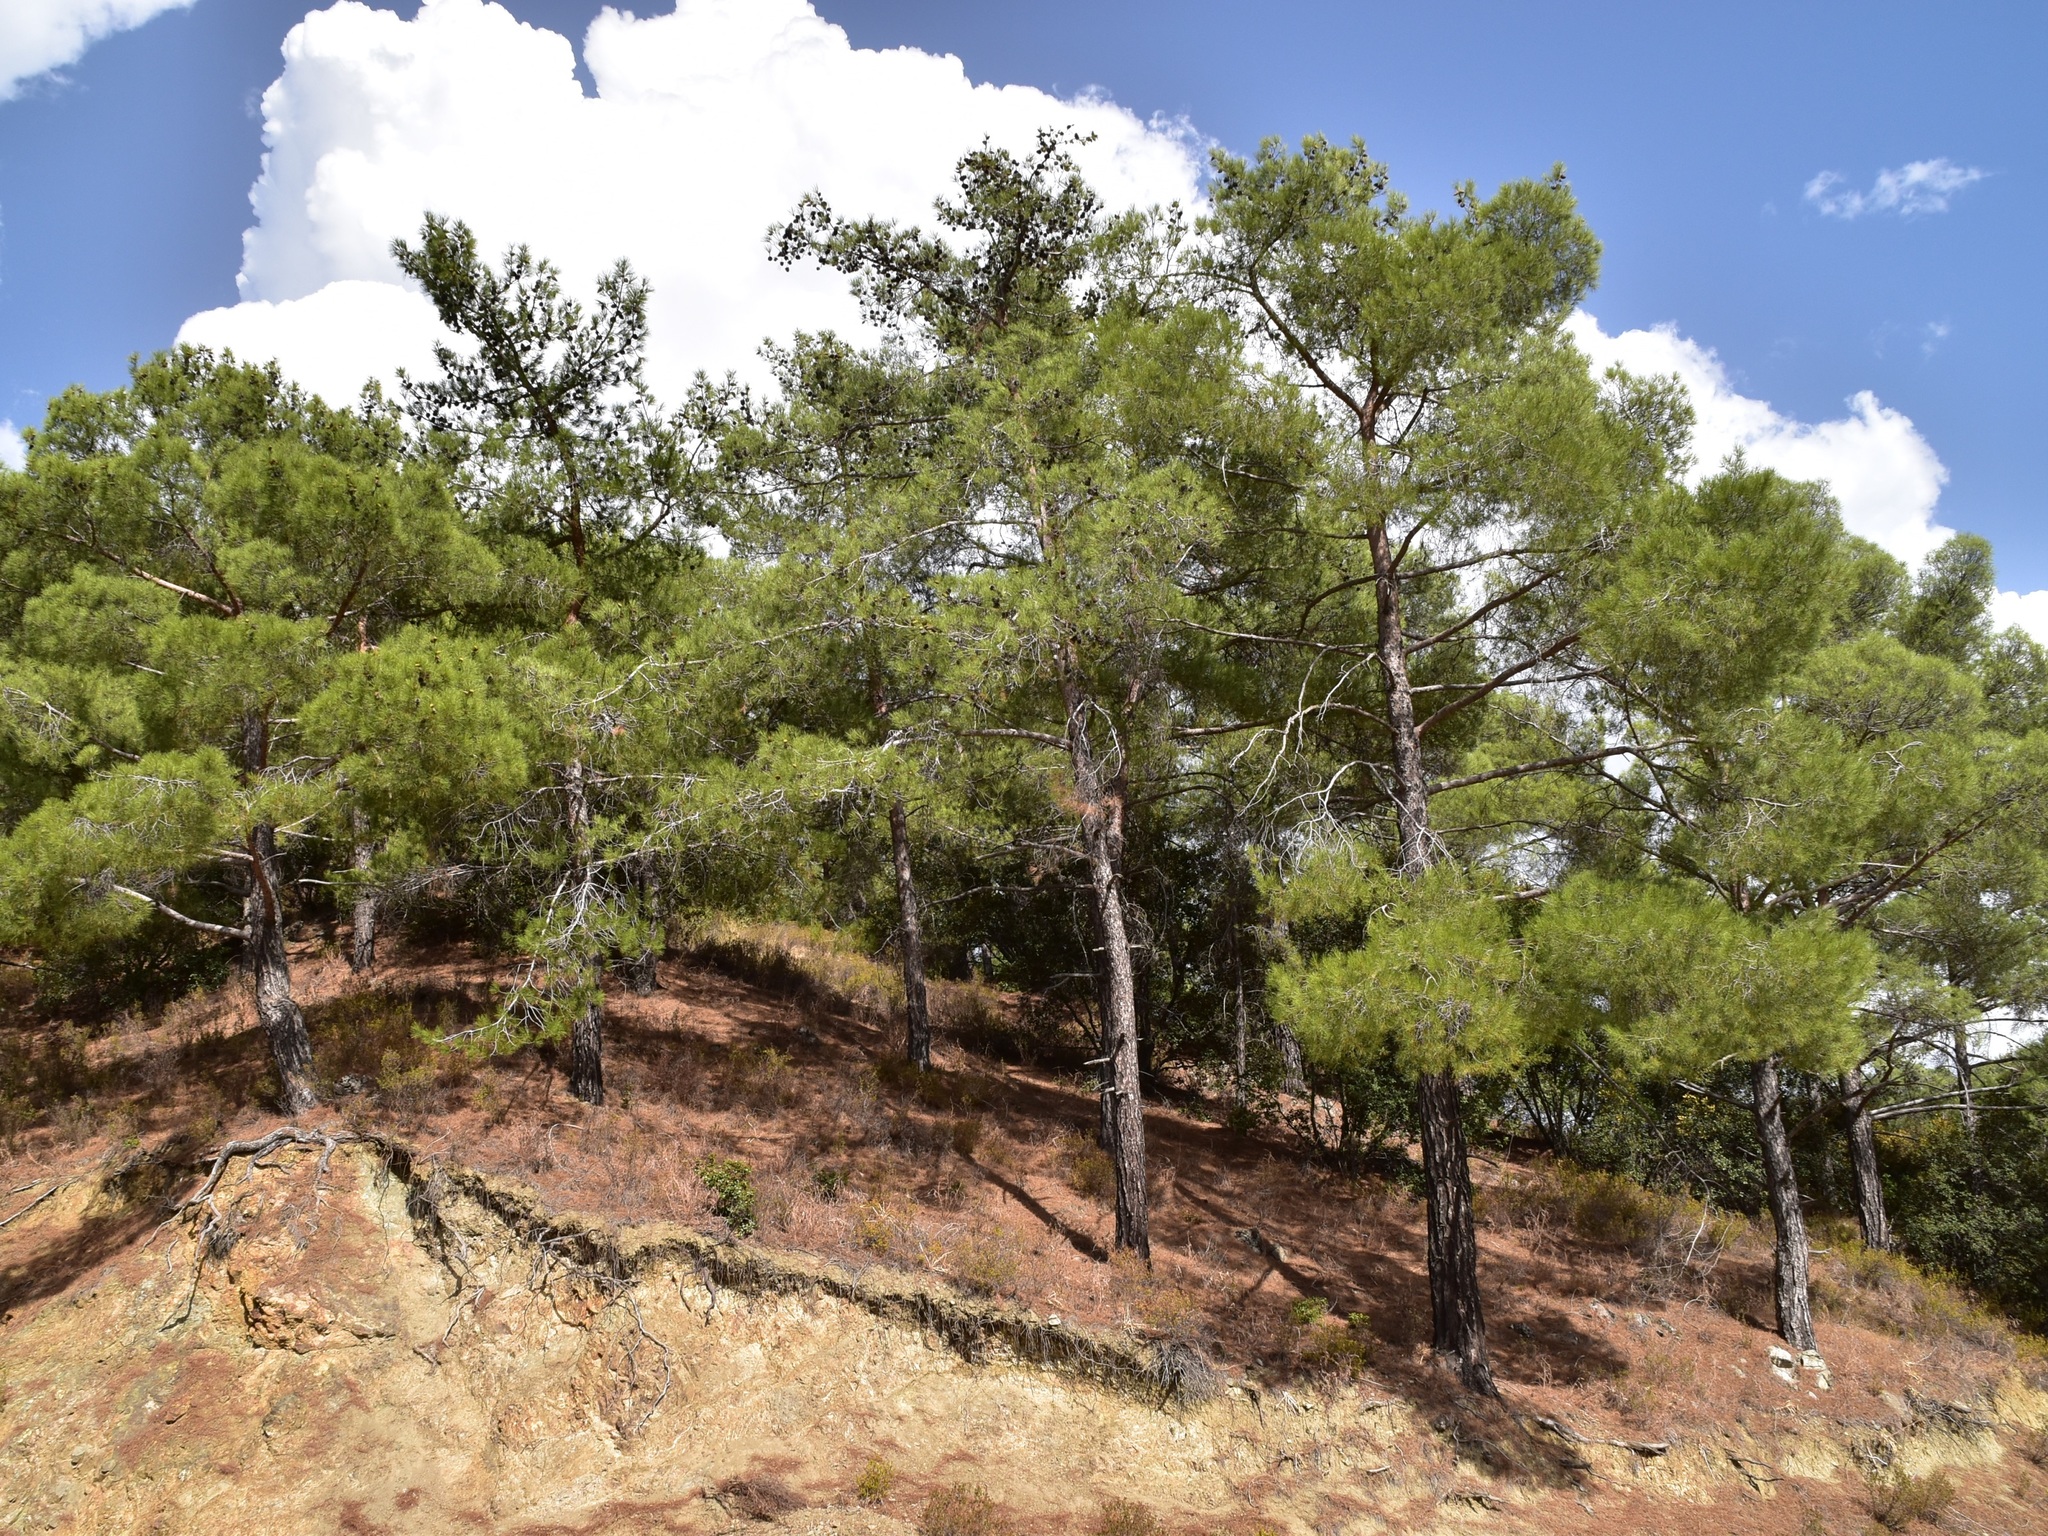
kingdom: Plantae
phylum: Tracheophyta
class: Pinopsida
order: Pinales
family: Pinaceae
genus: Pinus
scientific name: Pinus brutia
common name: Turkish pine
